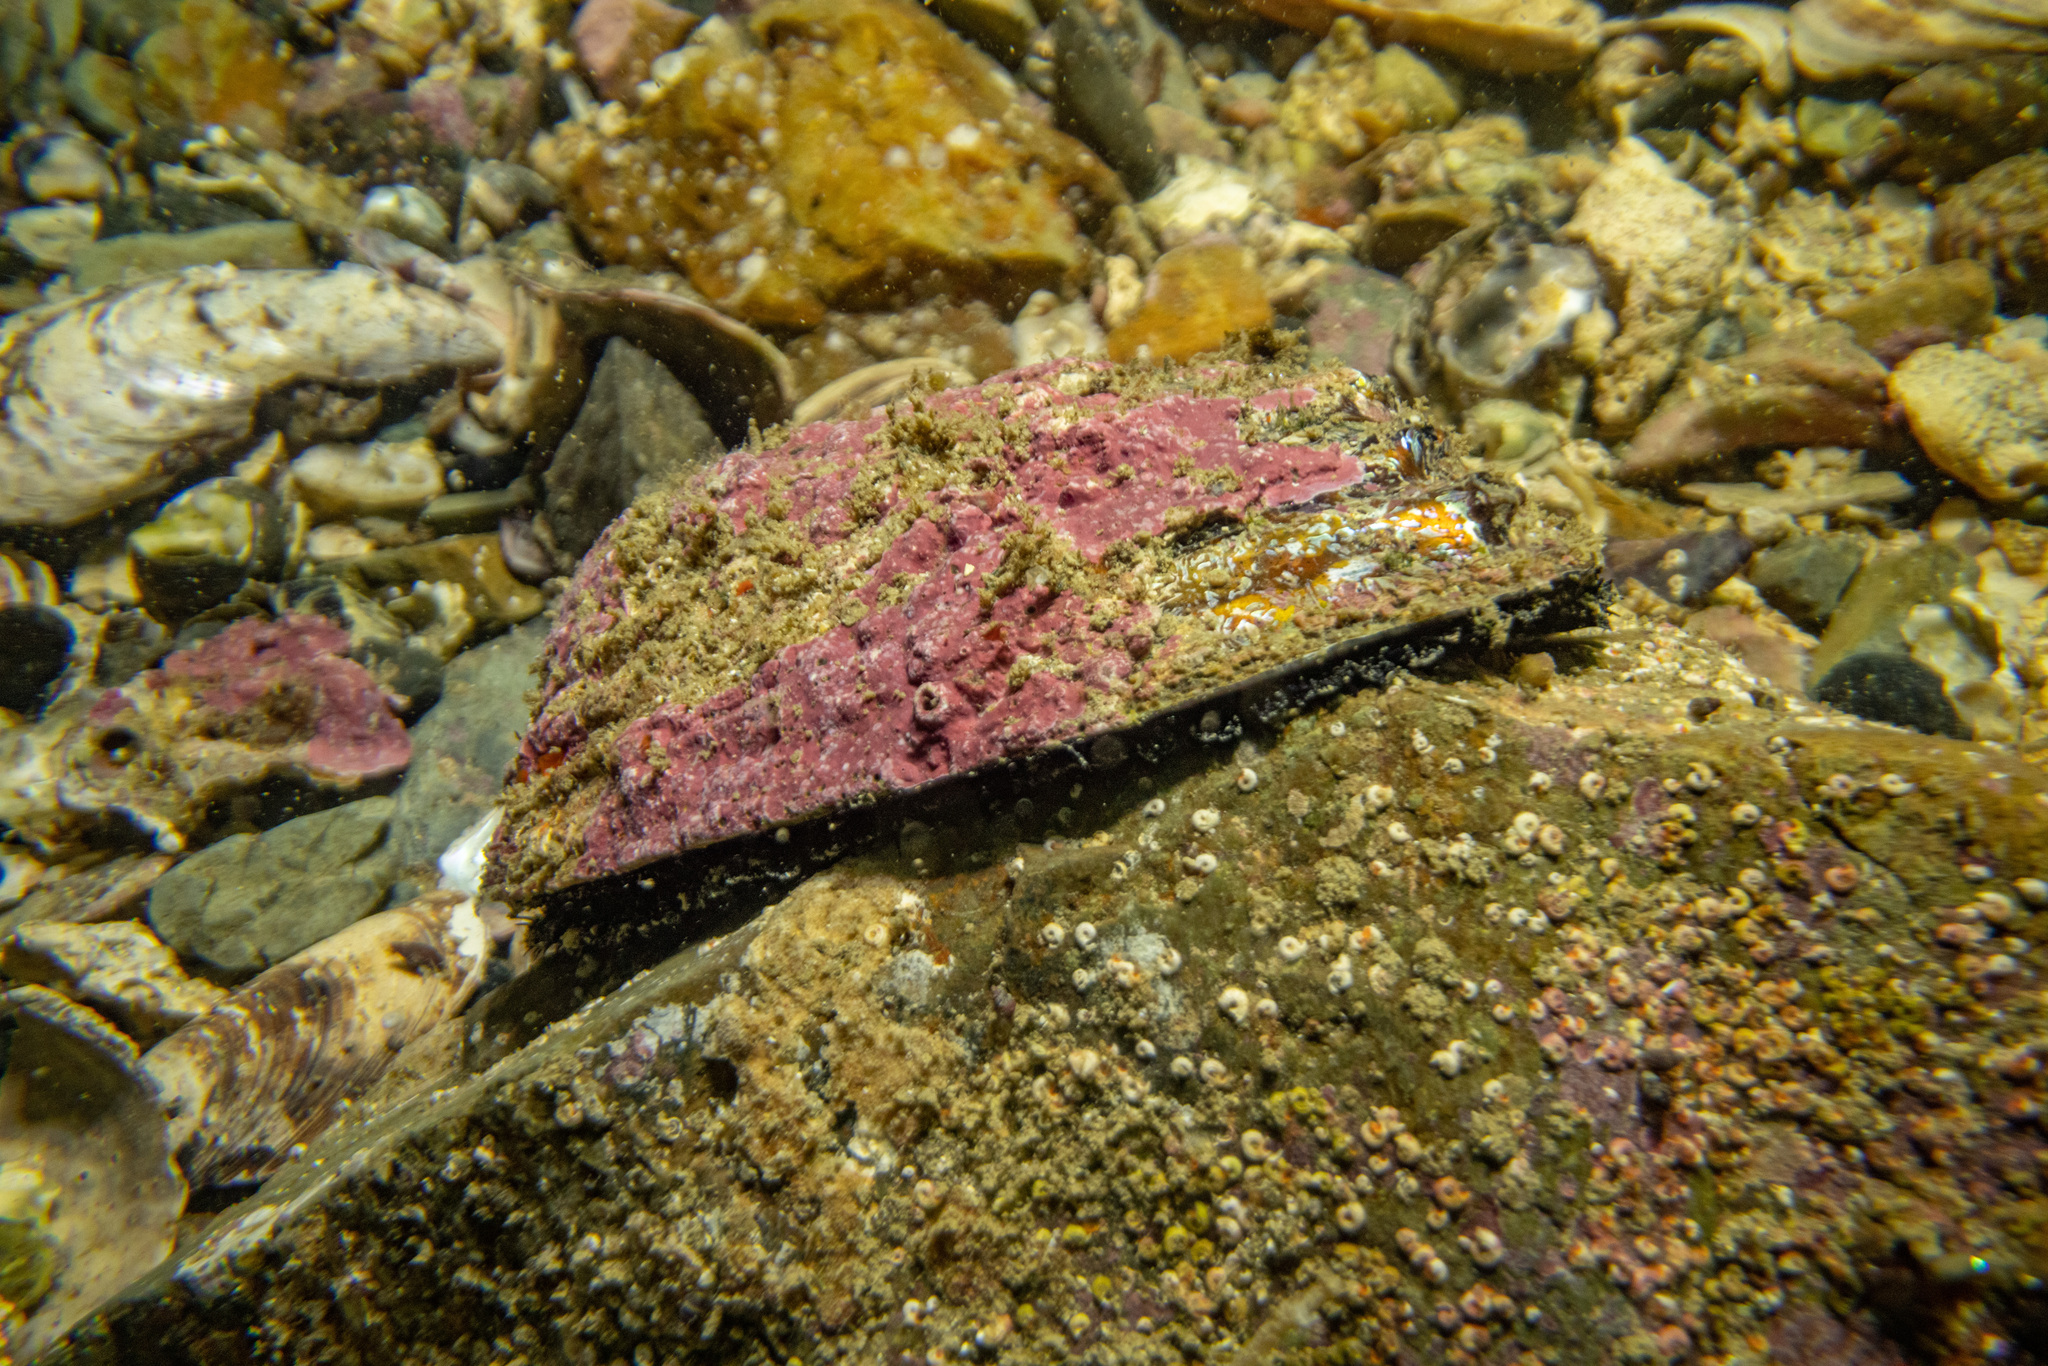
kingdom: Animalia
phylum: Mollusca
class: Gastropoda
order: Lepetellida
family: Haliotidae
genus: Haliotis
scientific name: Haliotis iris
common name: Abalone
